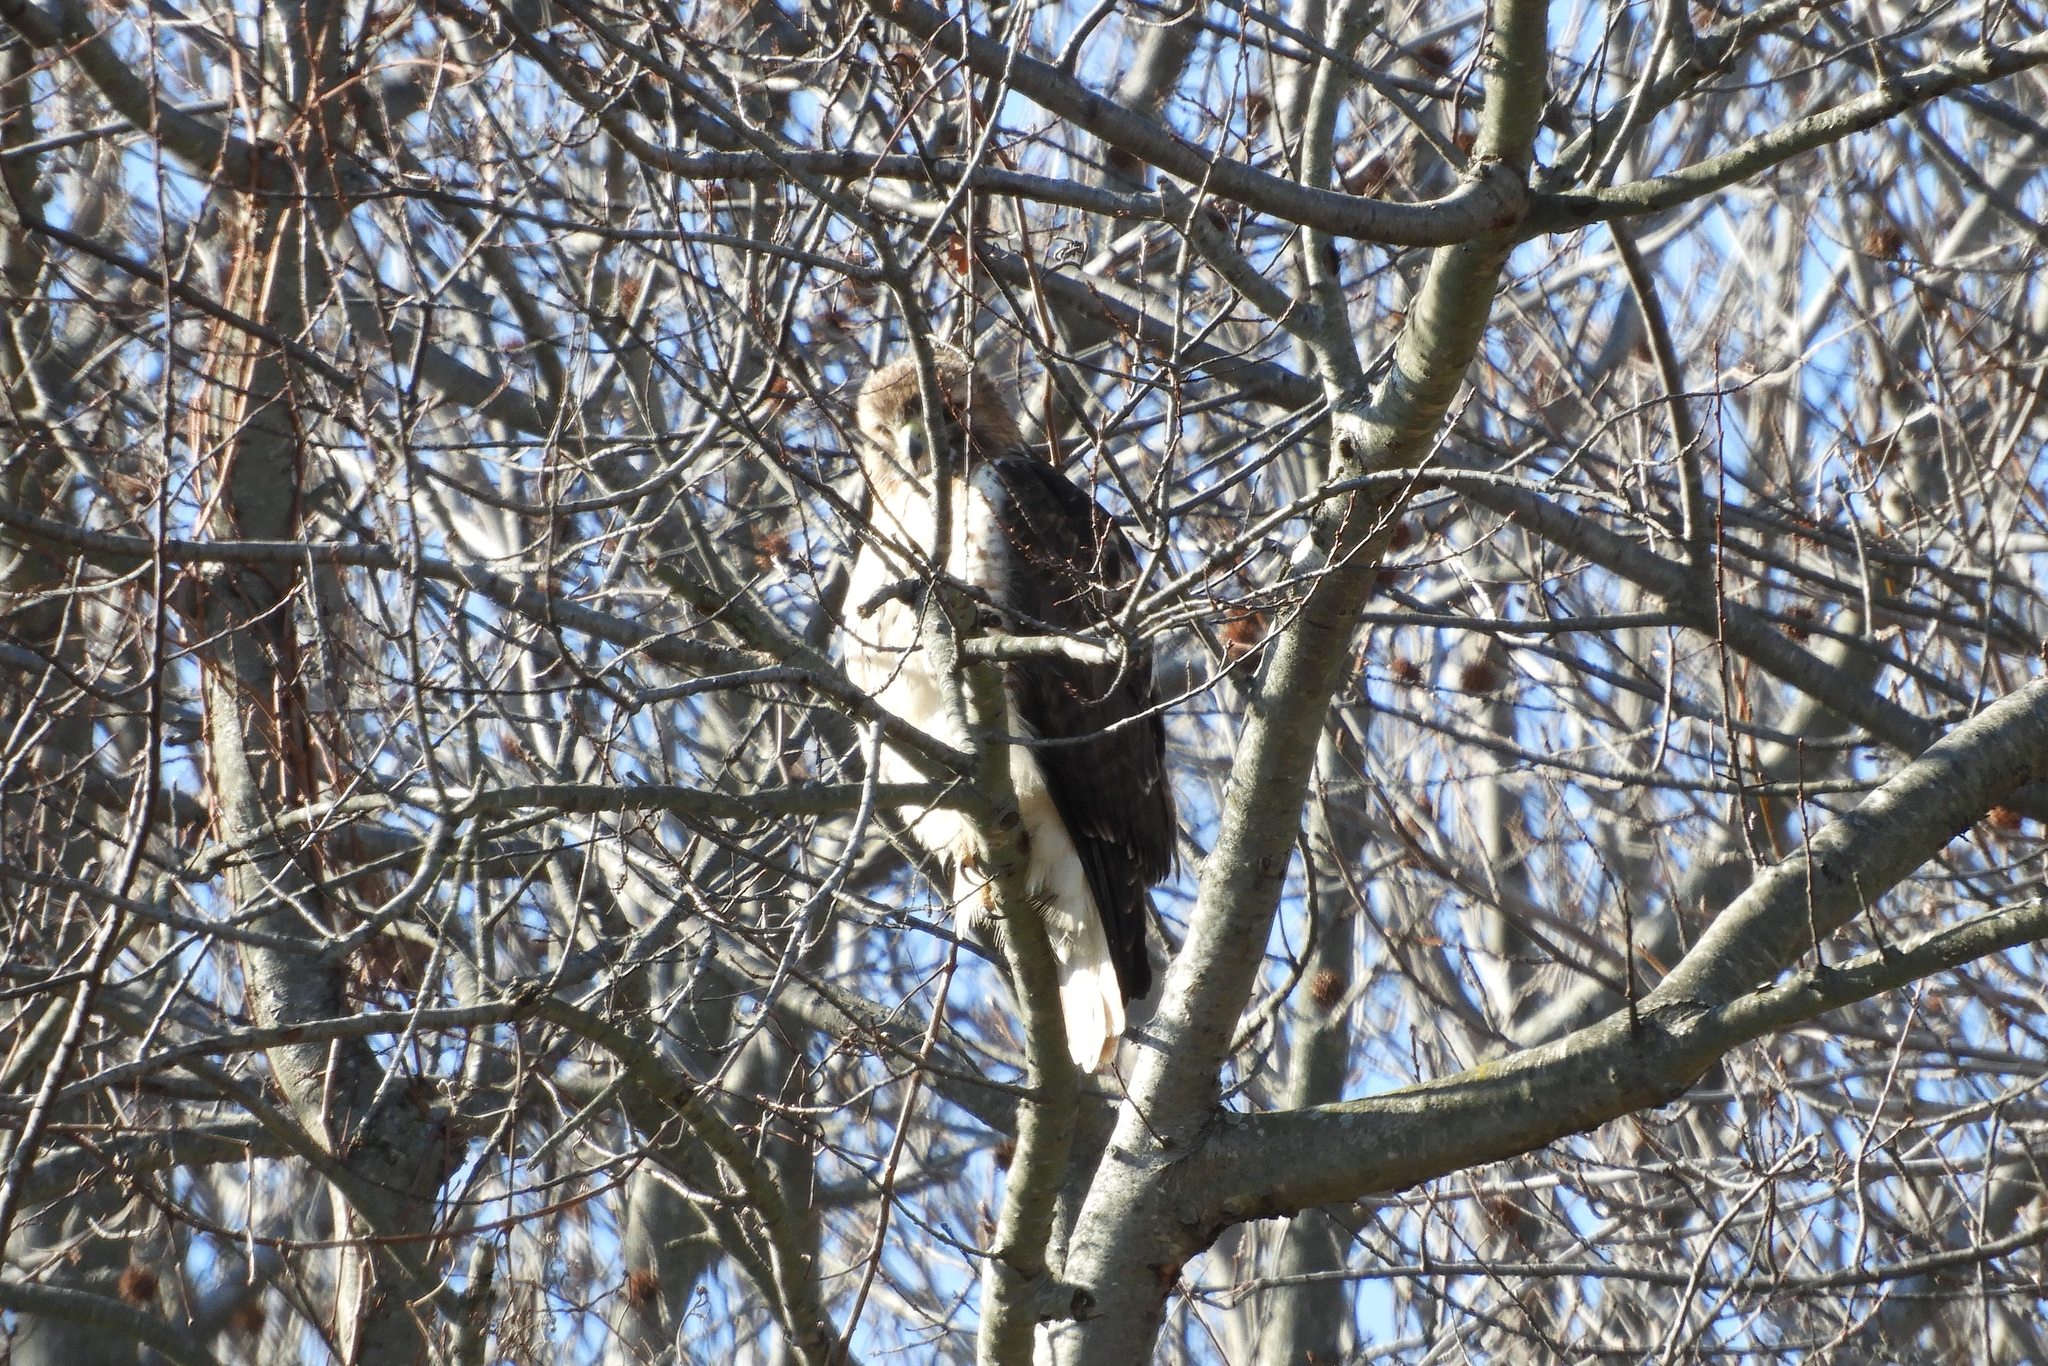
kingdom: Animalia
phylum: Chordata
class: Aves
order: Accipitriformes
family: Accipitridae
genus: Buteo
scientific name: Buteo jamaicensis
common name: Red-tailed hawk
